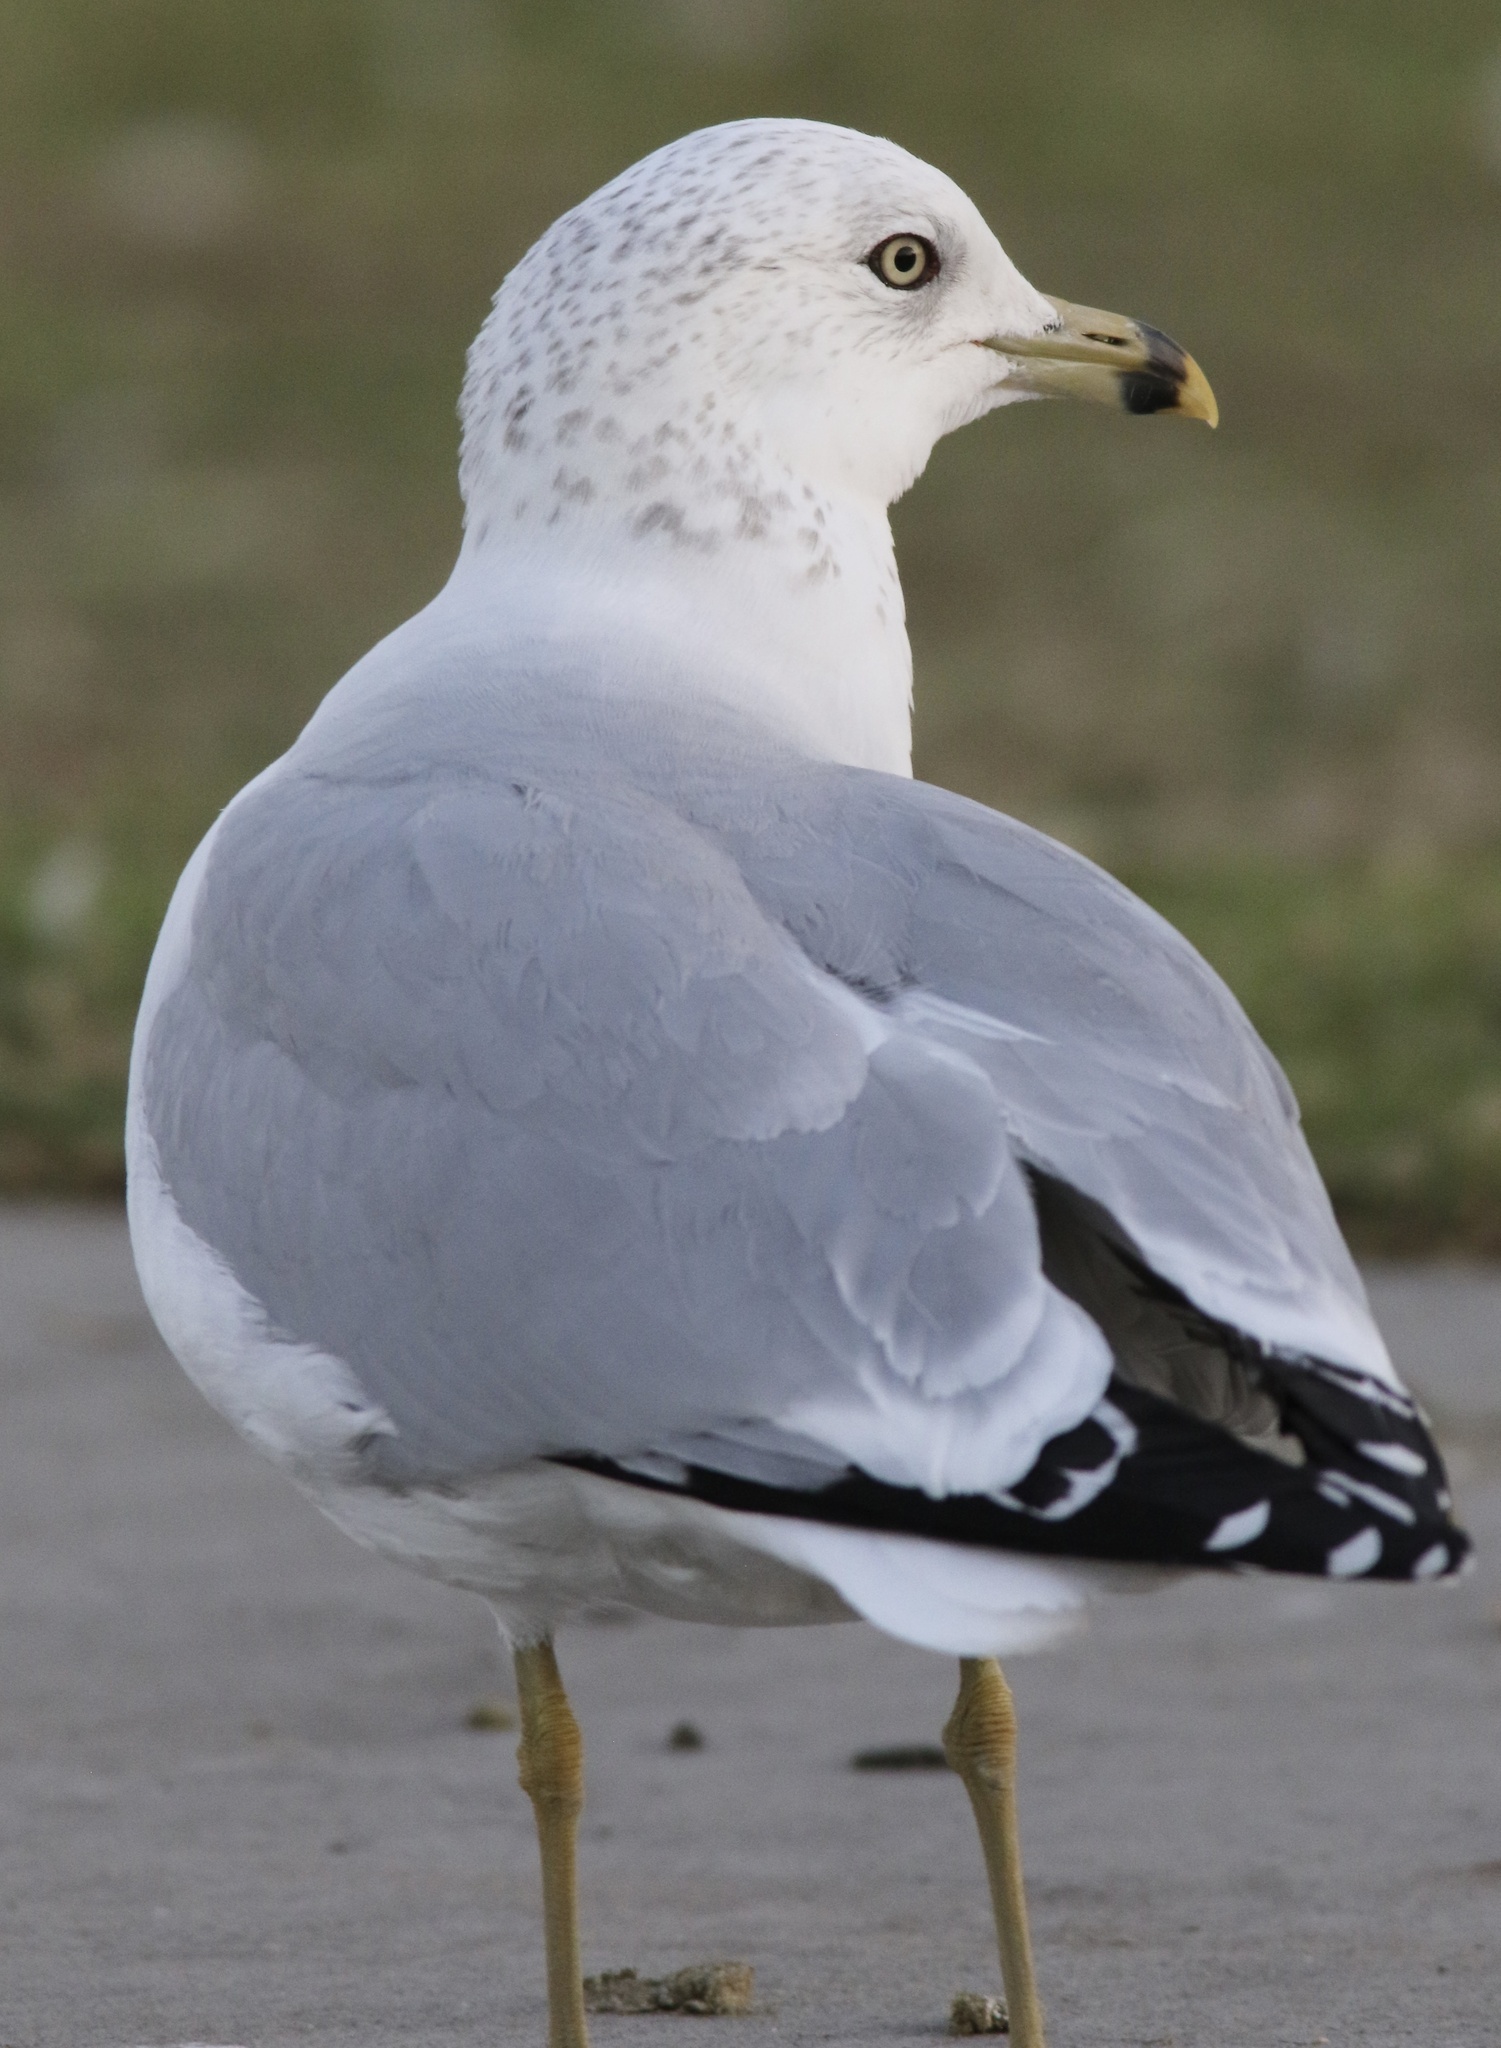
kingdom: Animalia
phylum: Chordata
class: Aves
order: Charadriiformes
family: Laridae
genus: Larus
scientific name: Larus delawarensis
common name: Ring-billed gull
